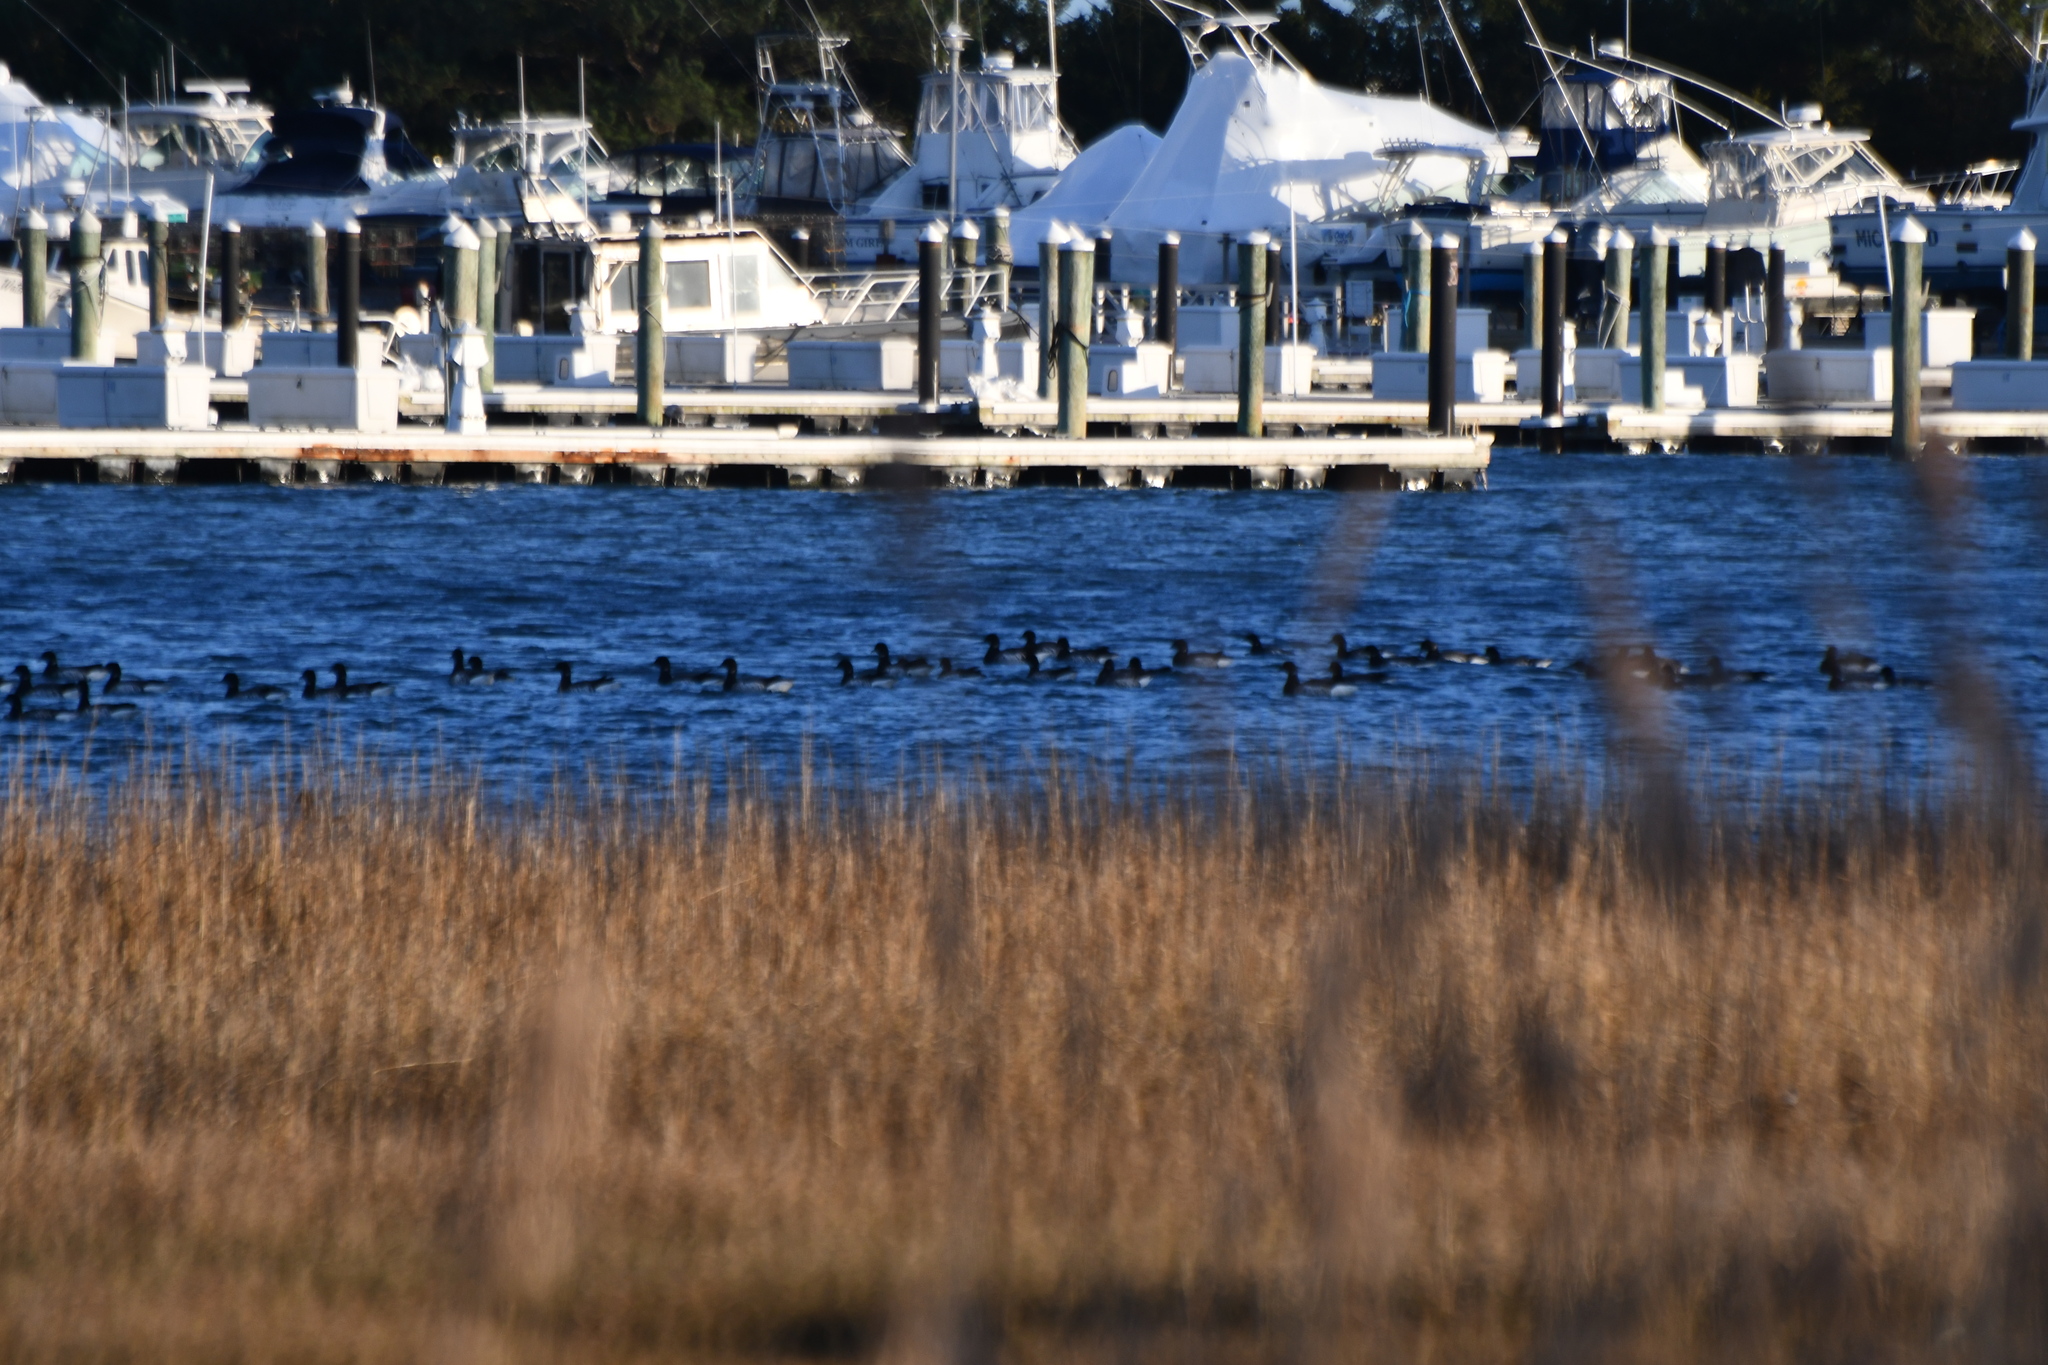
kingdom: Animalia
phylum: Chordata
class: Aves
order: Anseriformes
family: Anatidae
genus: Branta
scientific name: Branta bernicla
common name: Brant goose
